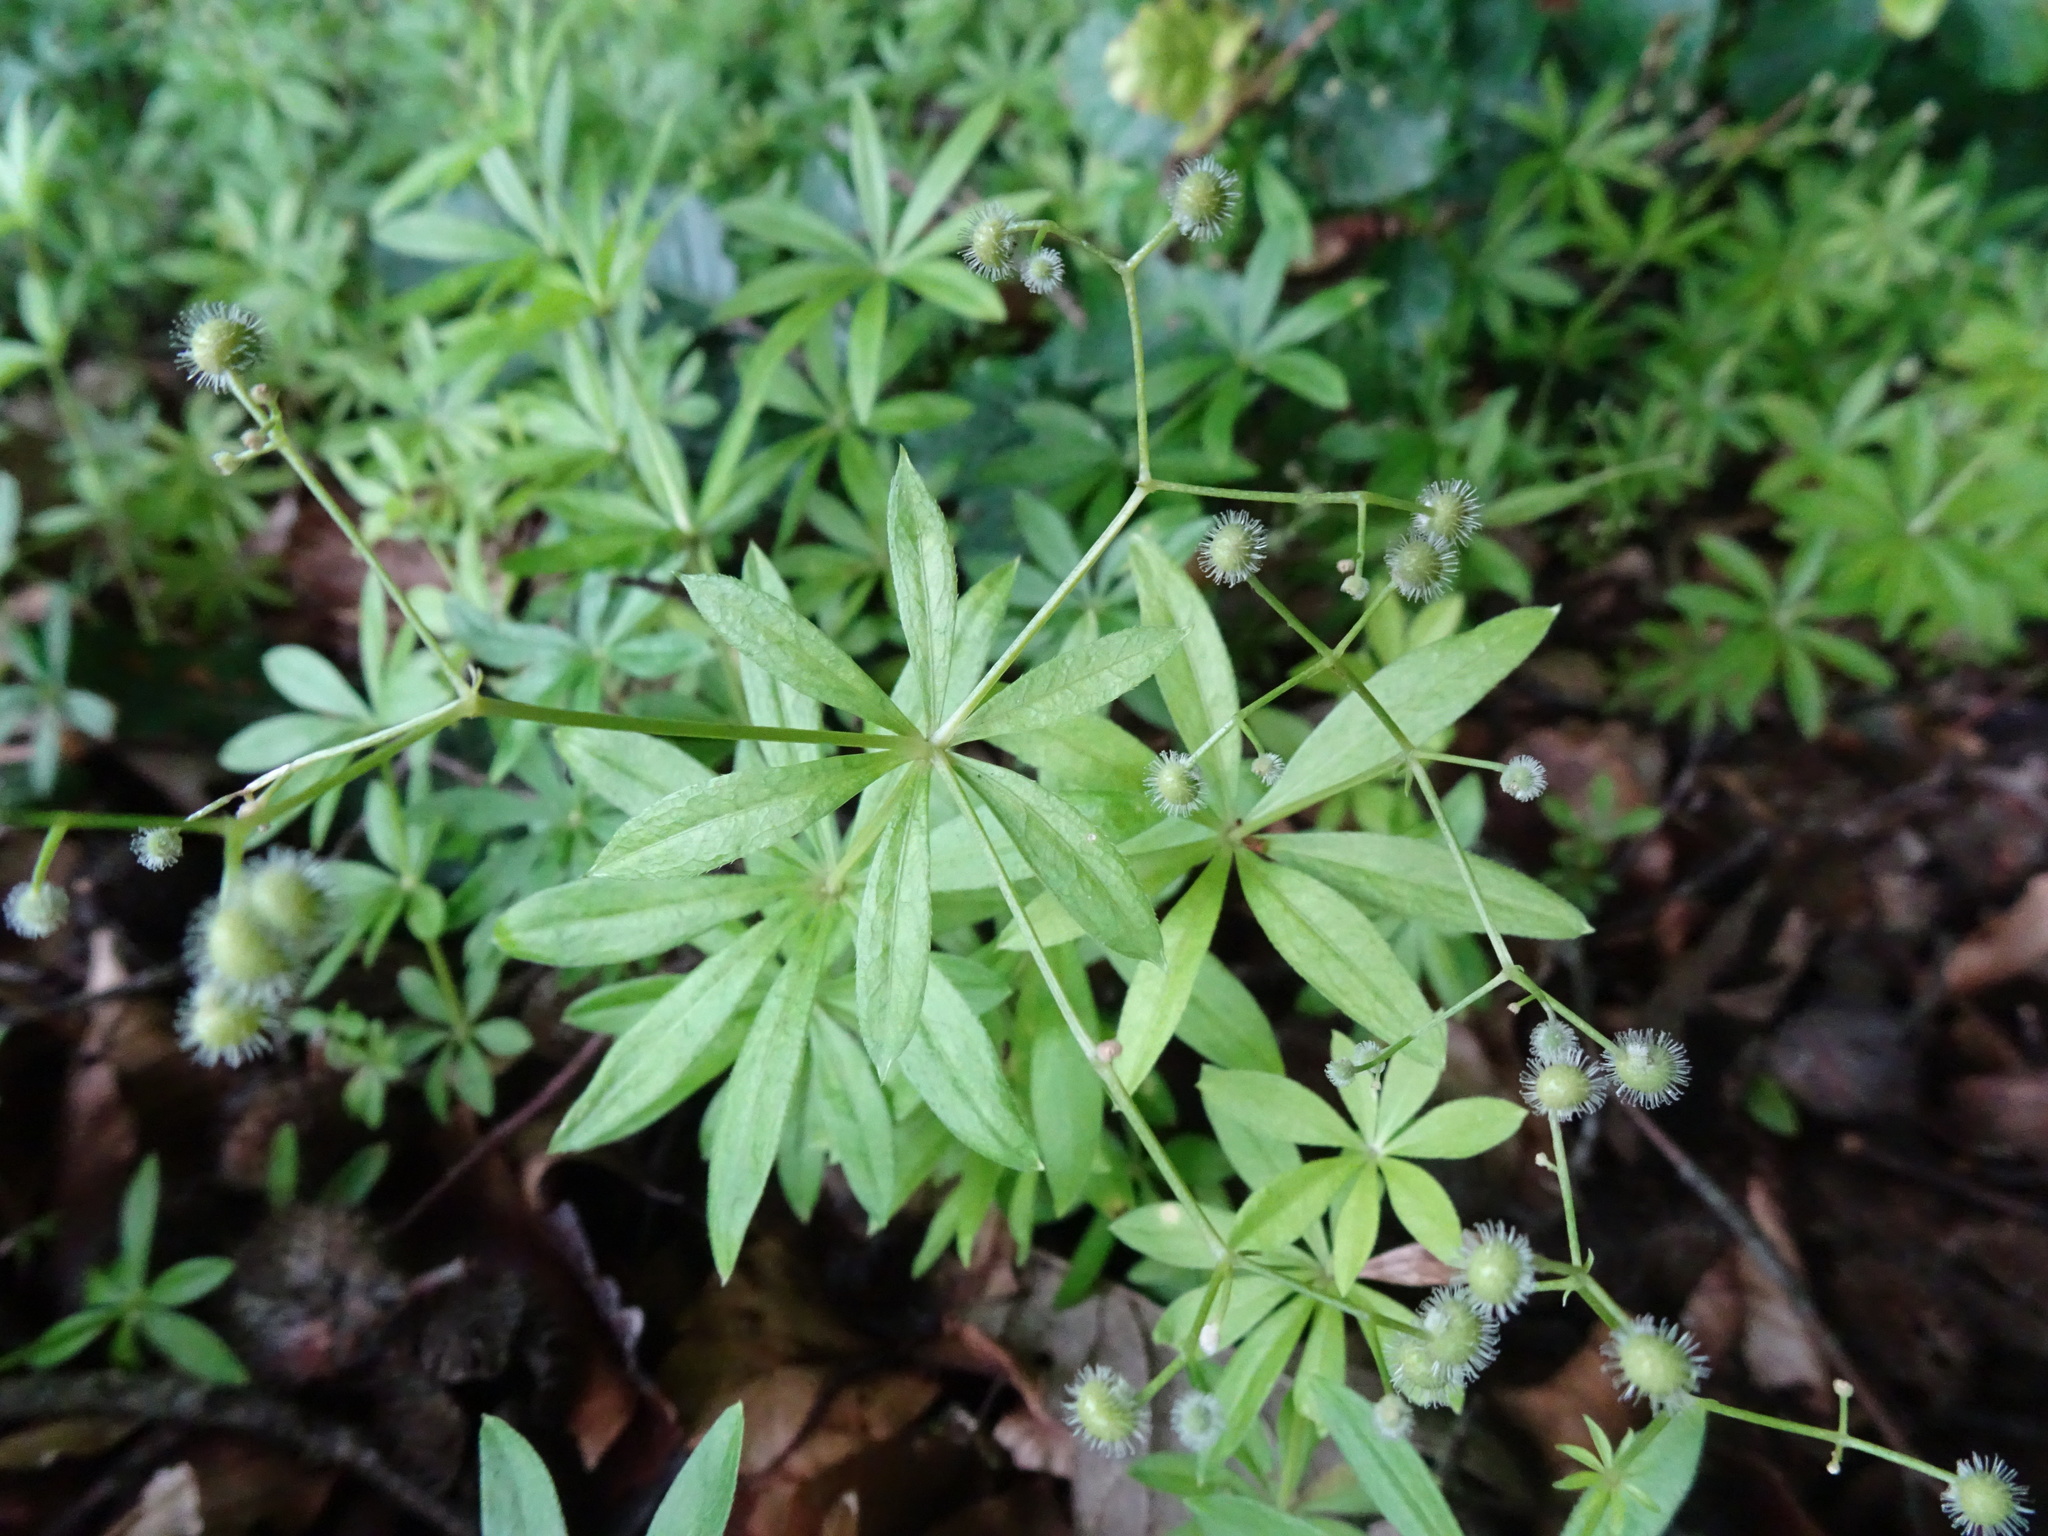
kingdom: Plantae
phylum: Tracheophyta
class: Magnoliopsida
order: Gentianales
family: Rubiaceae
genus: Galium
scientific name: Galium sylvaticum
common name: Wood bedstraw
